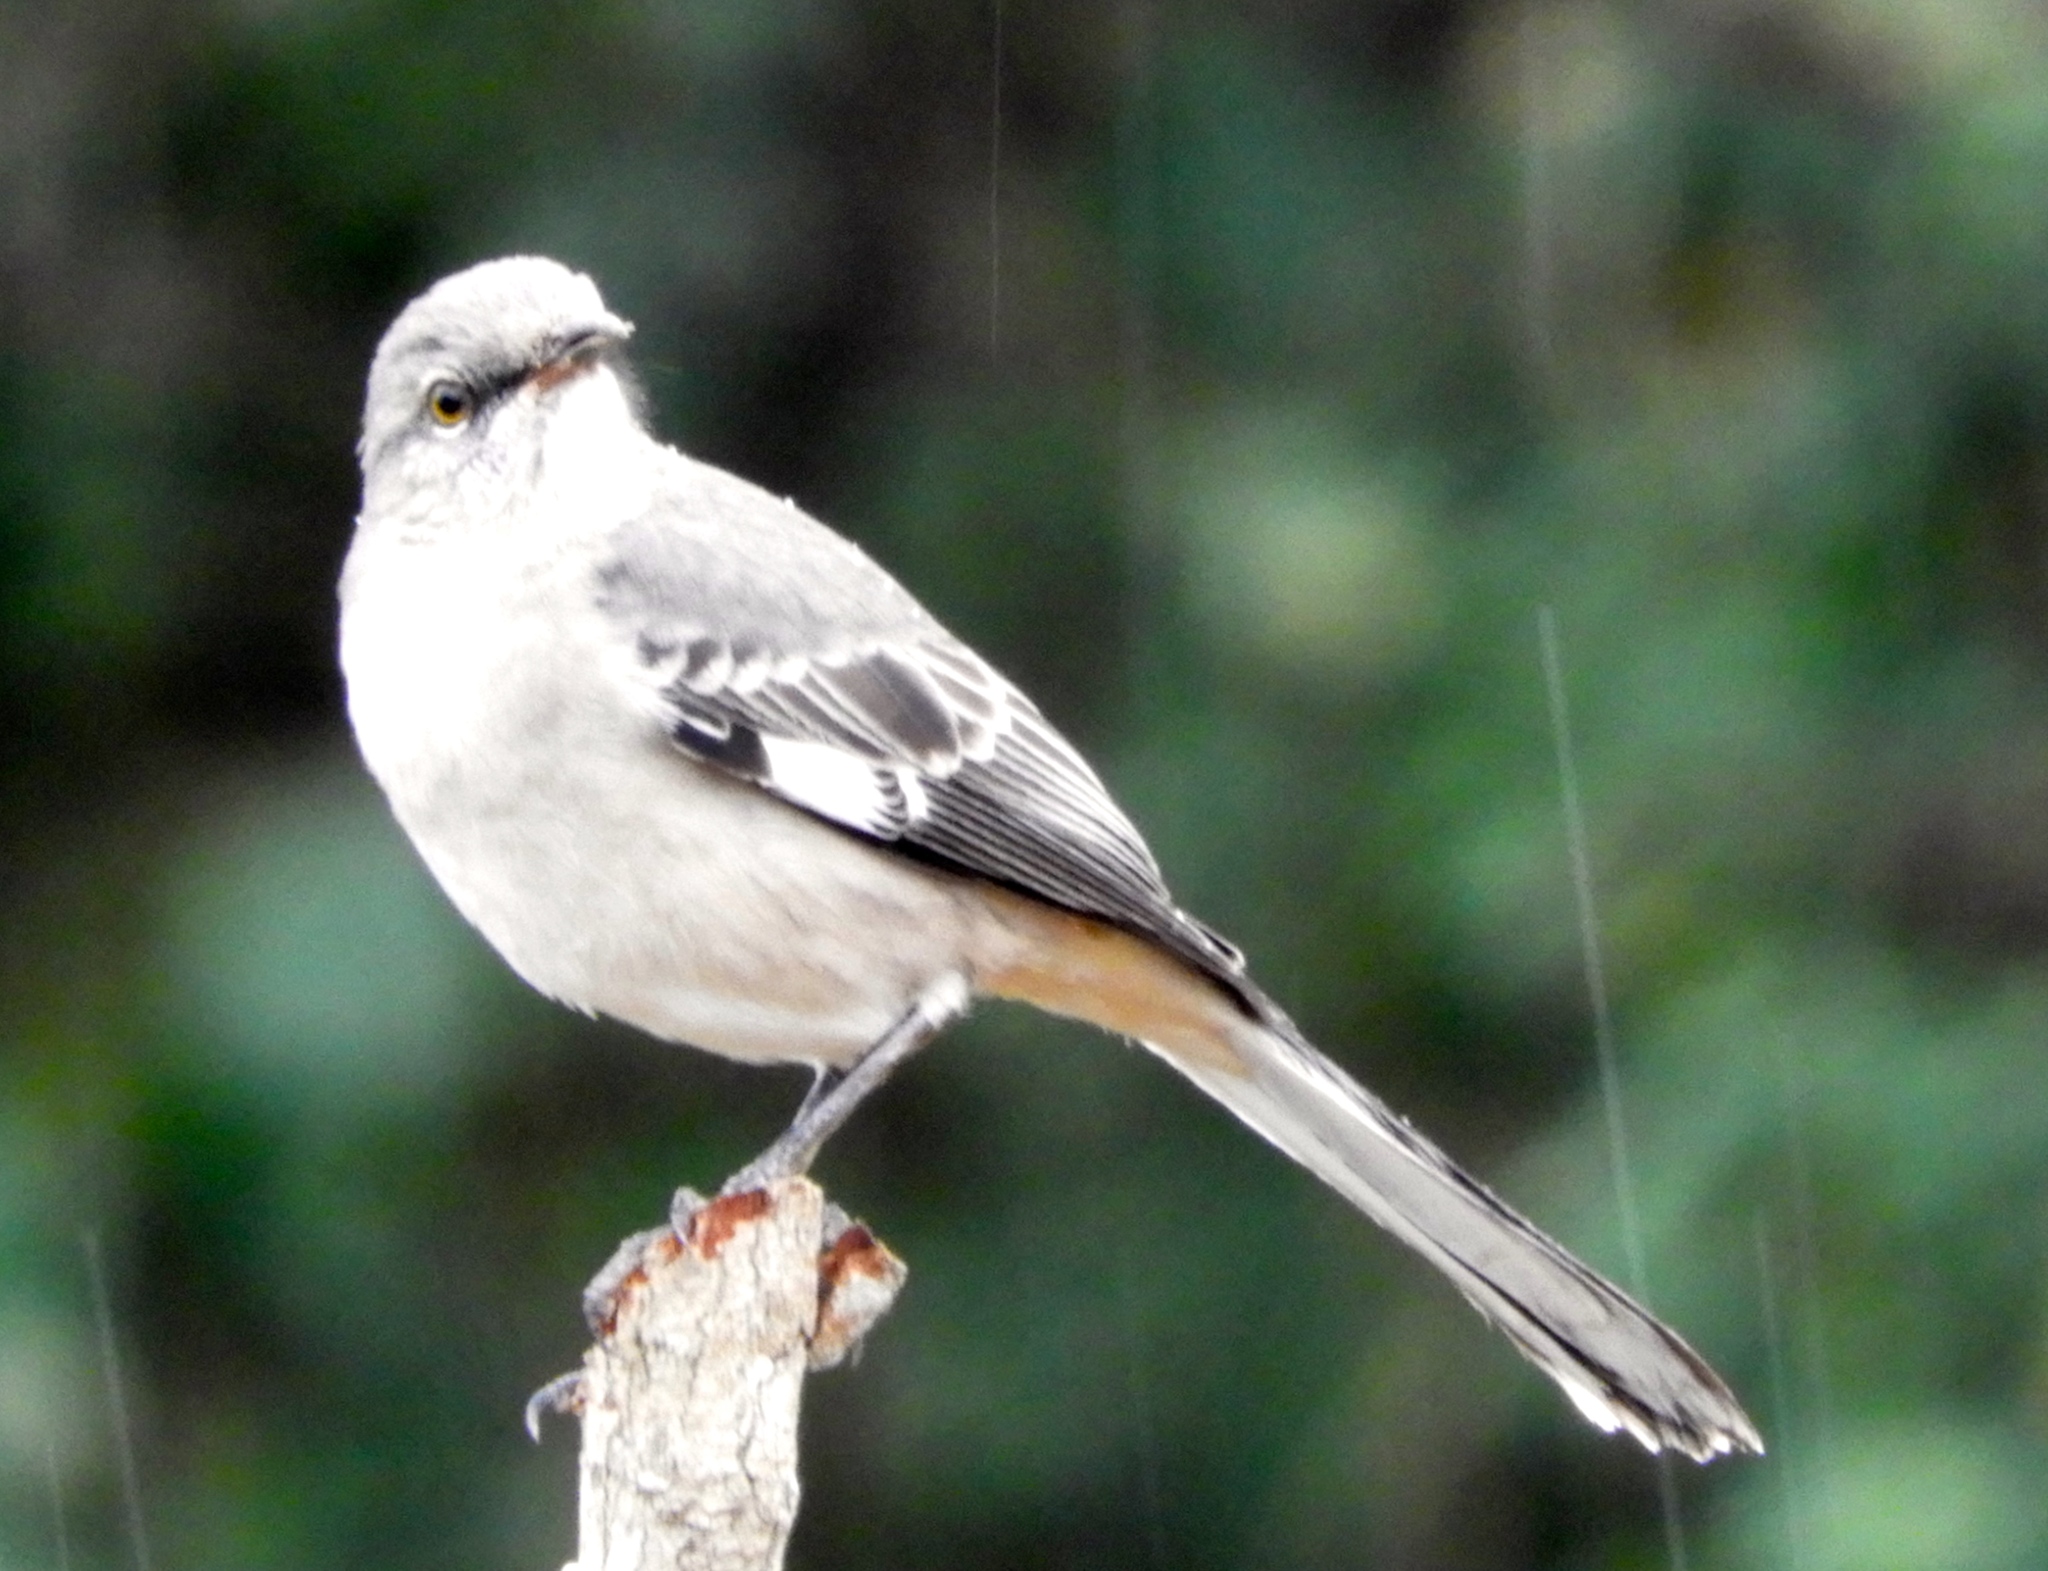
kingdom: Animalia
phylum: Chordata
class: Aves
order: Passeriformes
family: Mimidae
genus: Mimus
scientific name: Mimus polyglottos
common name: Northern mockingbird
